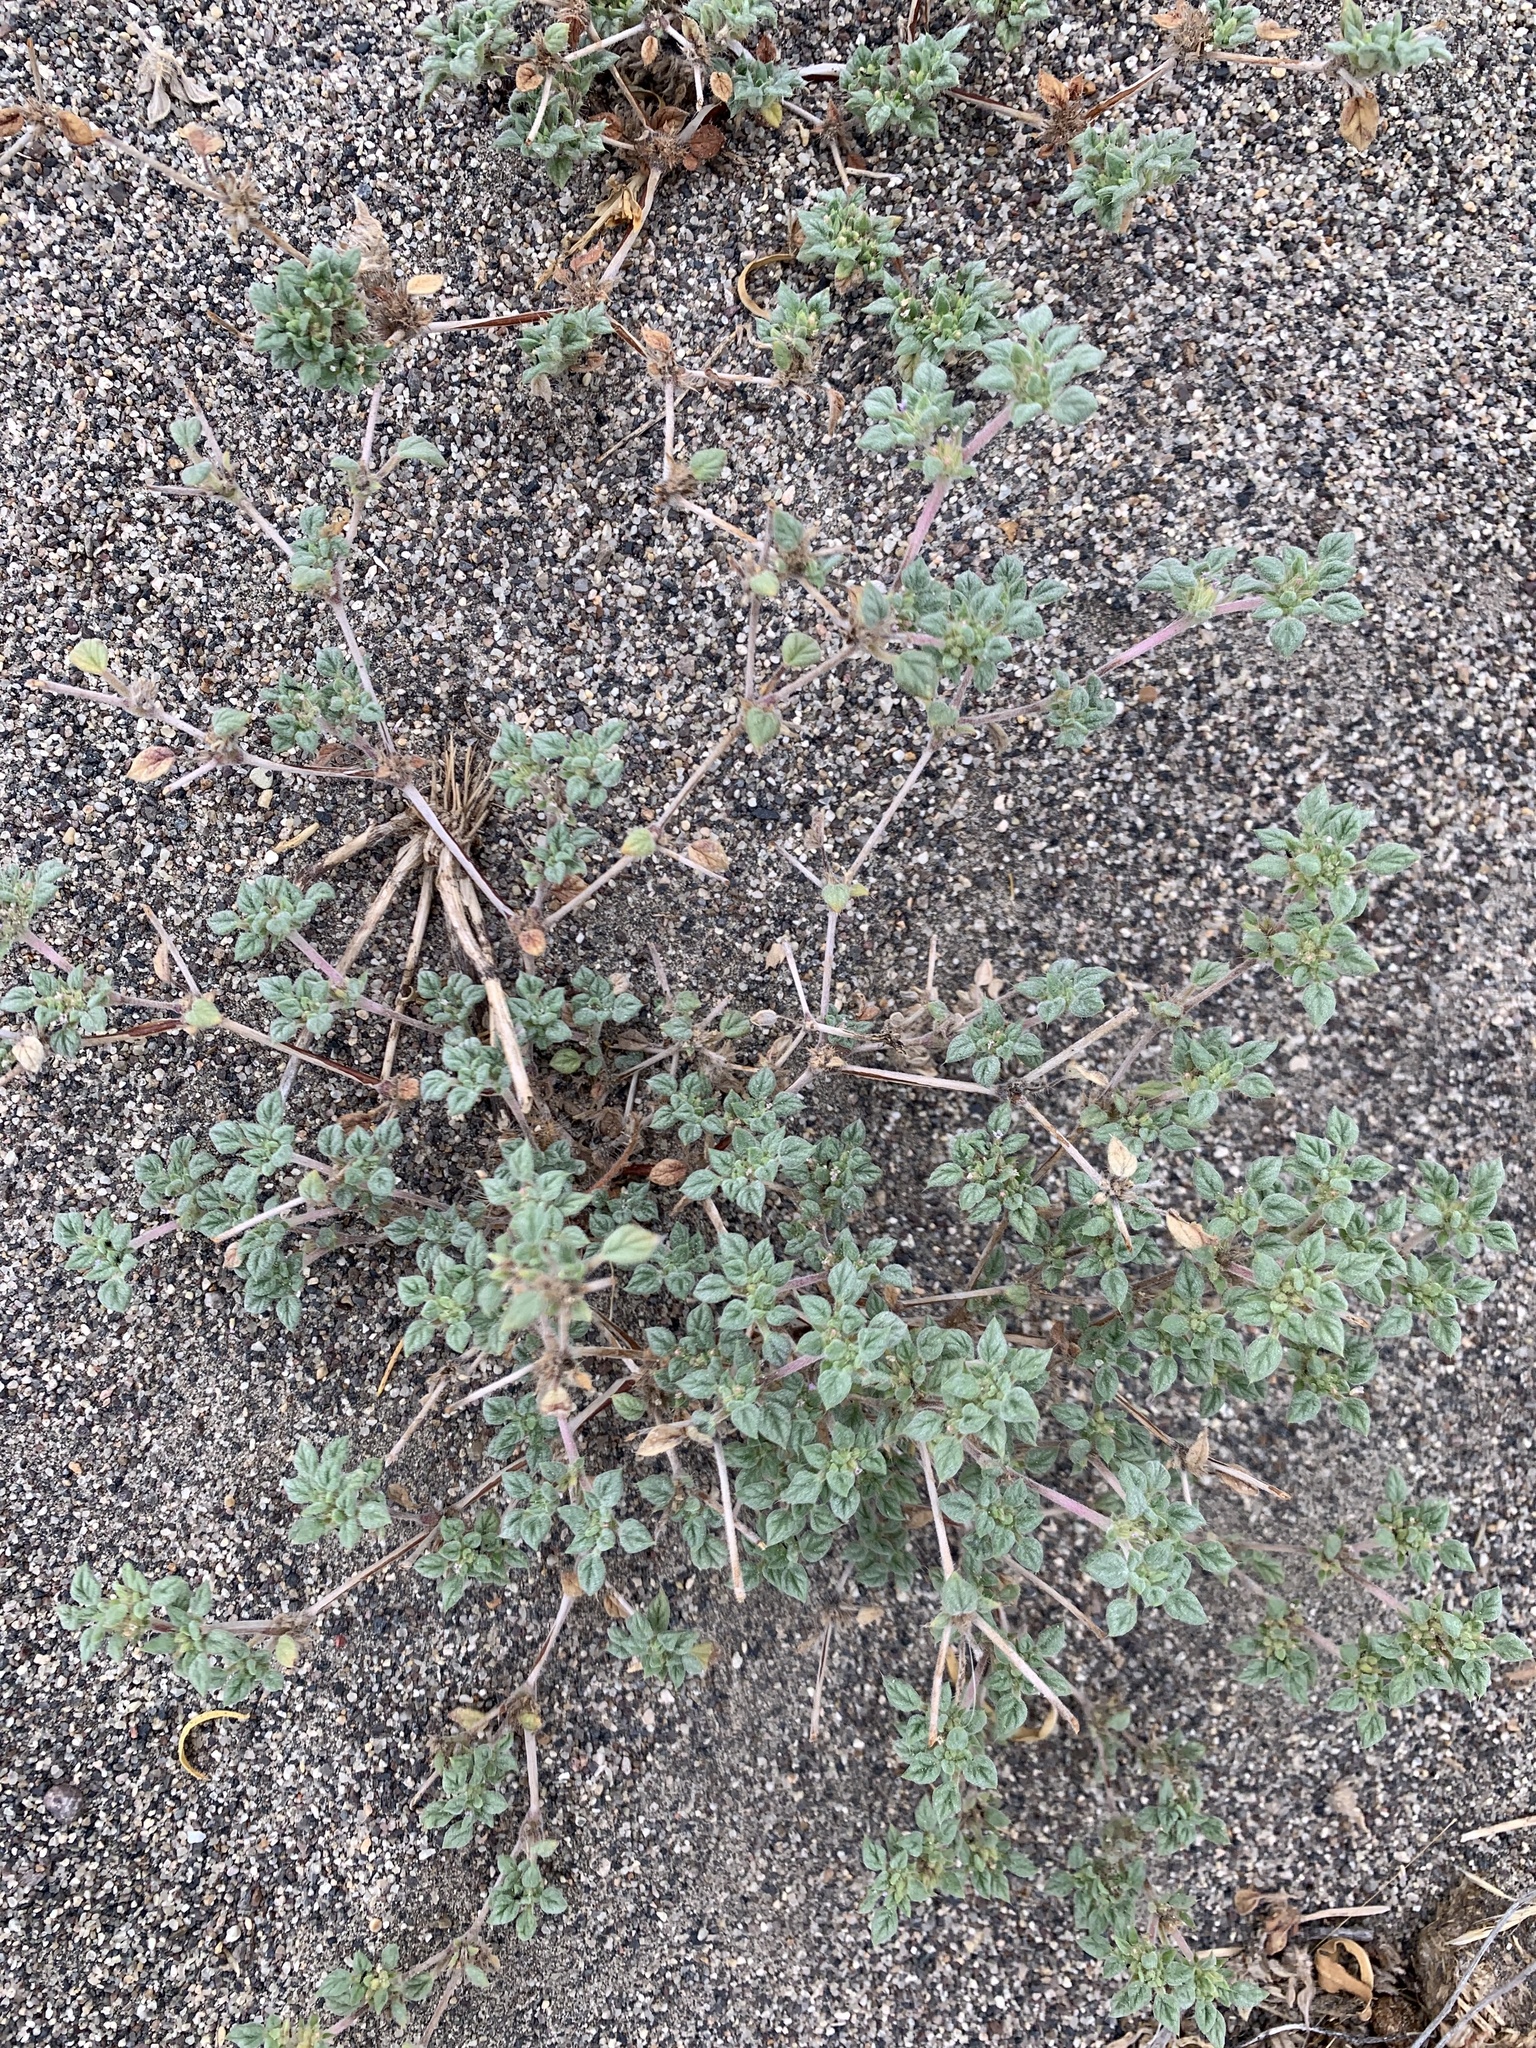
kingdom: Plantae
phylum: Tracheophyta
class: Magnoliopsida
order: Boraginales
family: Ehretiaceae
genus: Tiquilia
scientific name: Tiquilia nuttallii
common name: Rosette tiquilia
